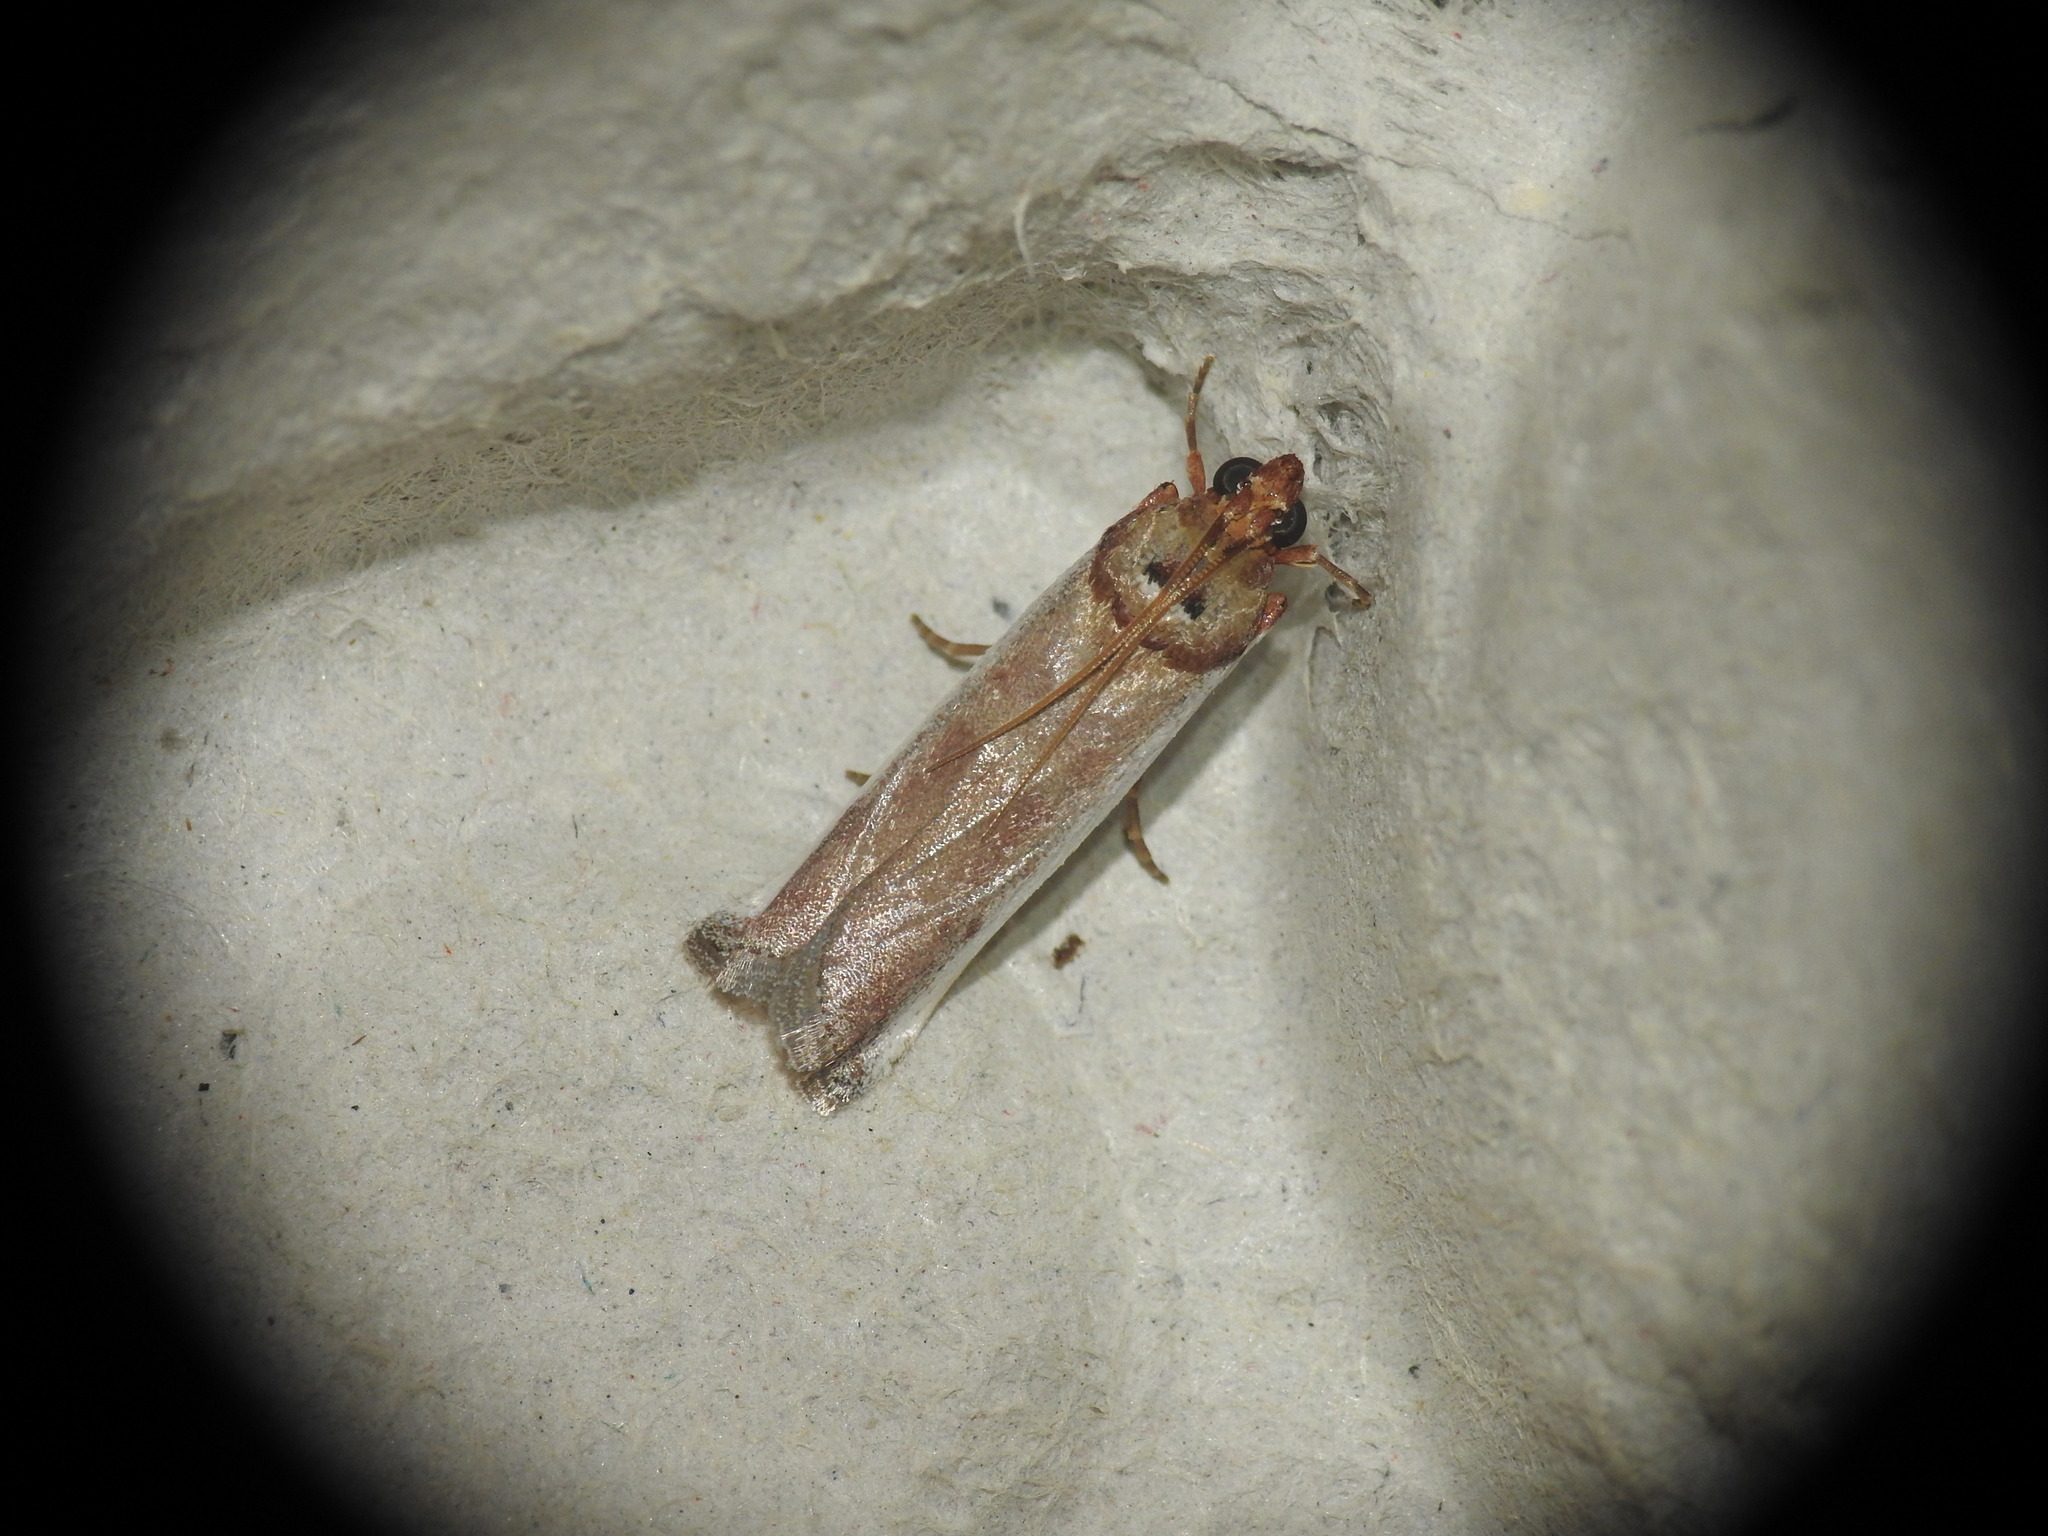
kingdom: Animalia
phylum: Arthropoda
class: Insecta
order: Lepidoptera
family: Pyralidae
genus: Sciota
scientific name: Sciota Denticera divisella
